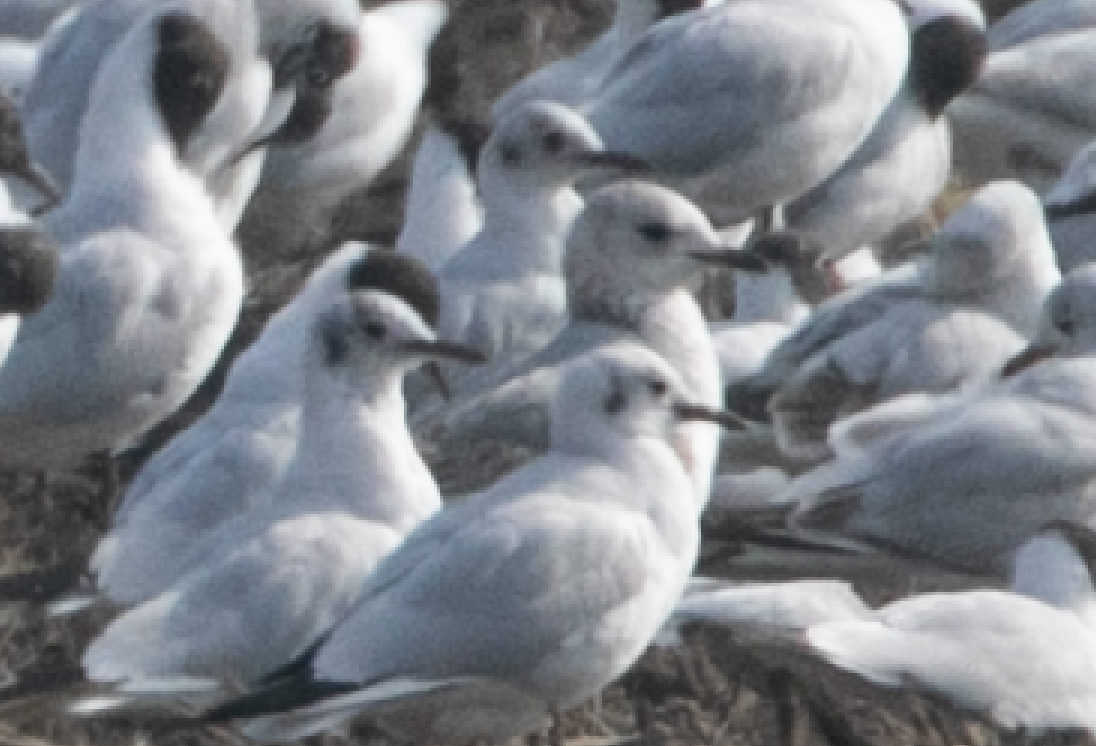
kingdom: Animalia
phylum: Chordata
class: Aves
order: Charadriiformes
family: Laridae
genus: Larus
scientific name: Larus canus
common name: Mew gull
